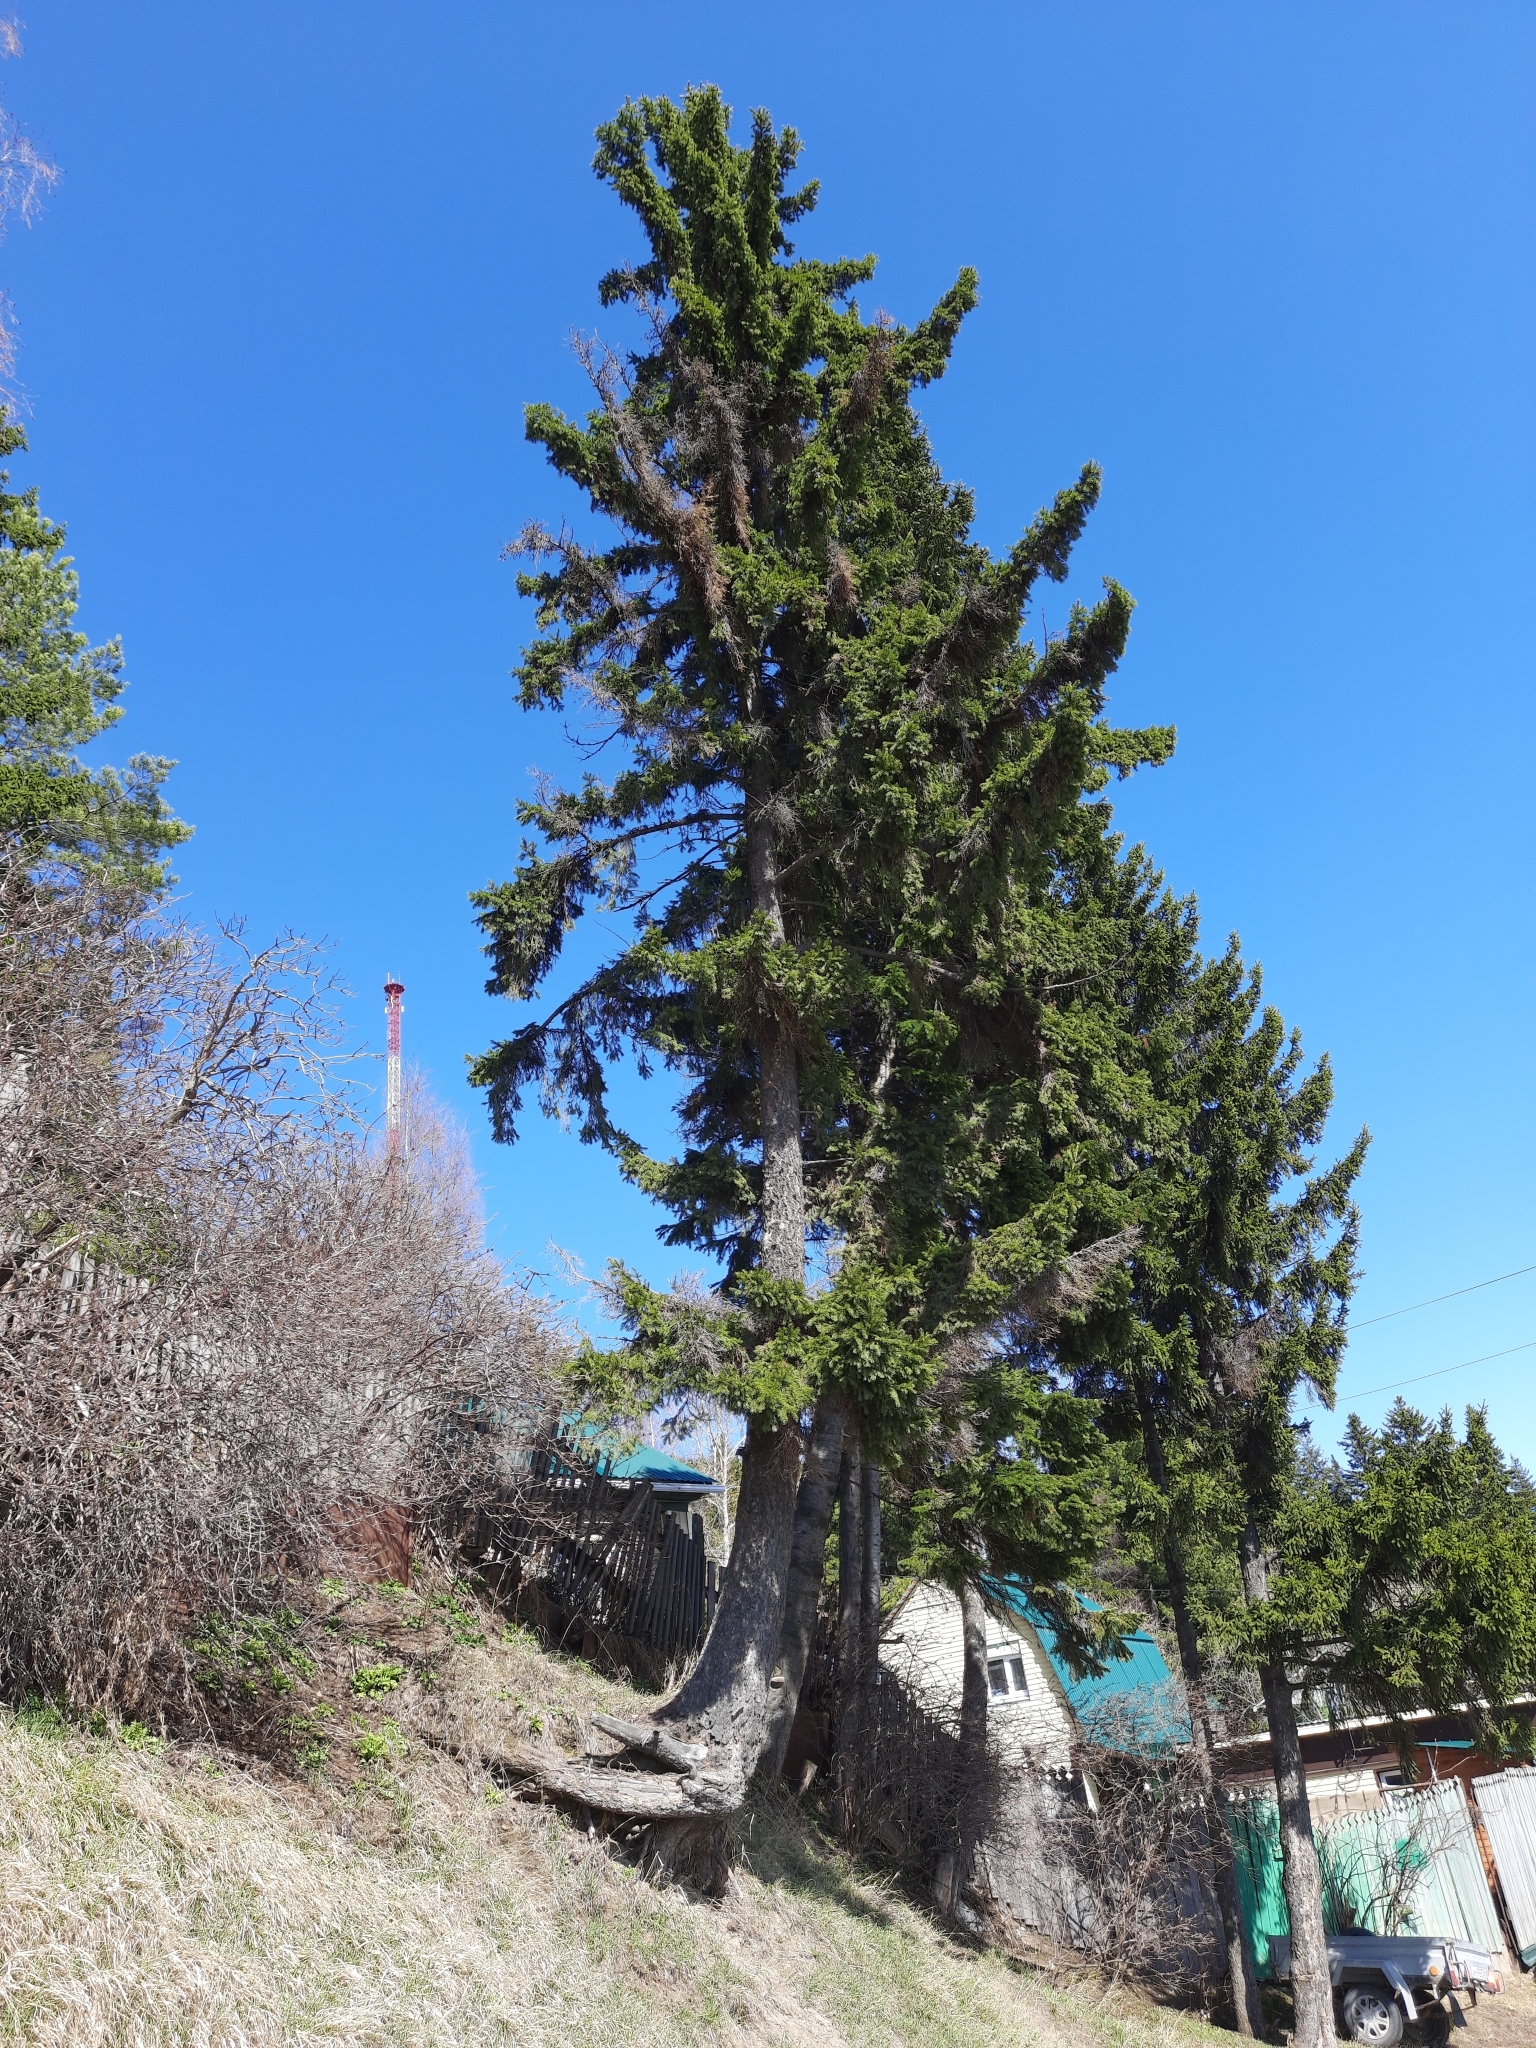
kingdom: Plantae
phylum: Tracheophyta
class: Pinopsida
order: Pinales
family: Pinaceae
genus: Picea
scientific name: Picea obovata
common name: Siberian spruce
